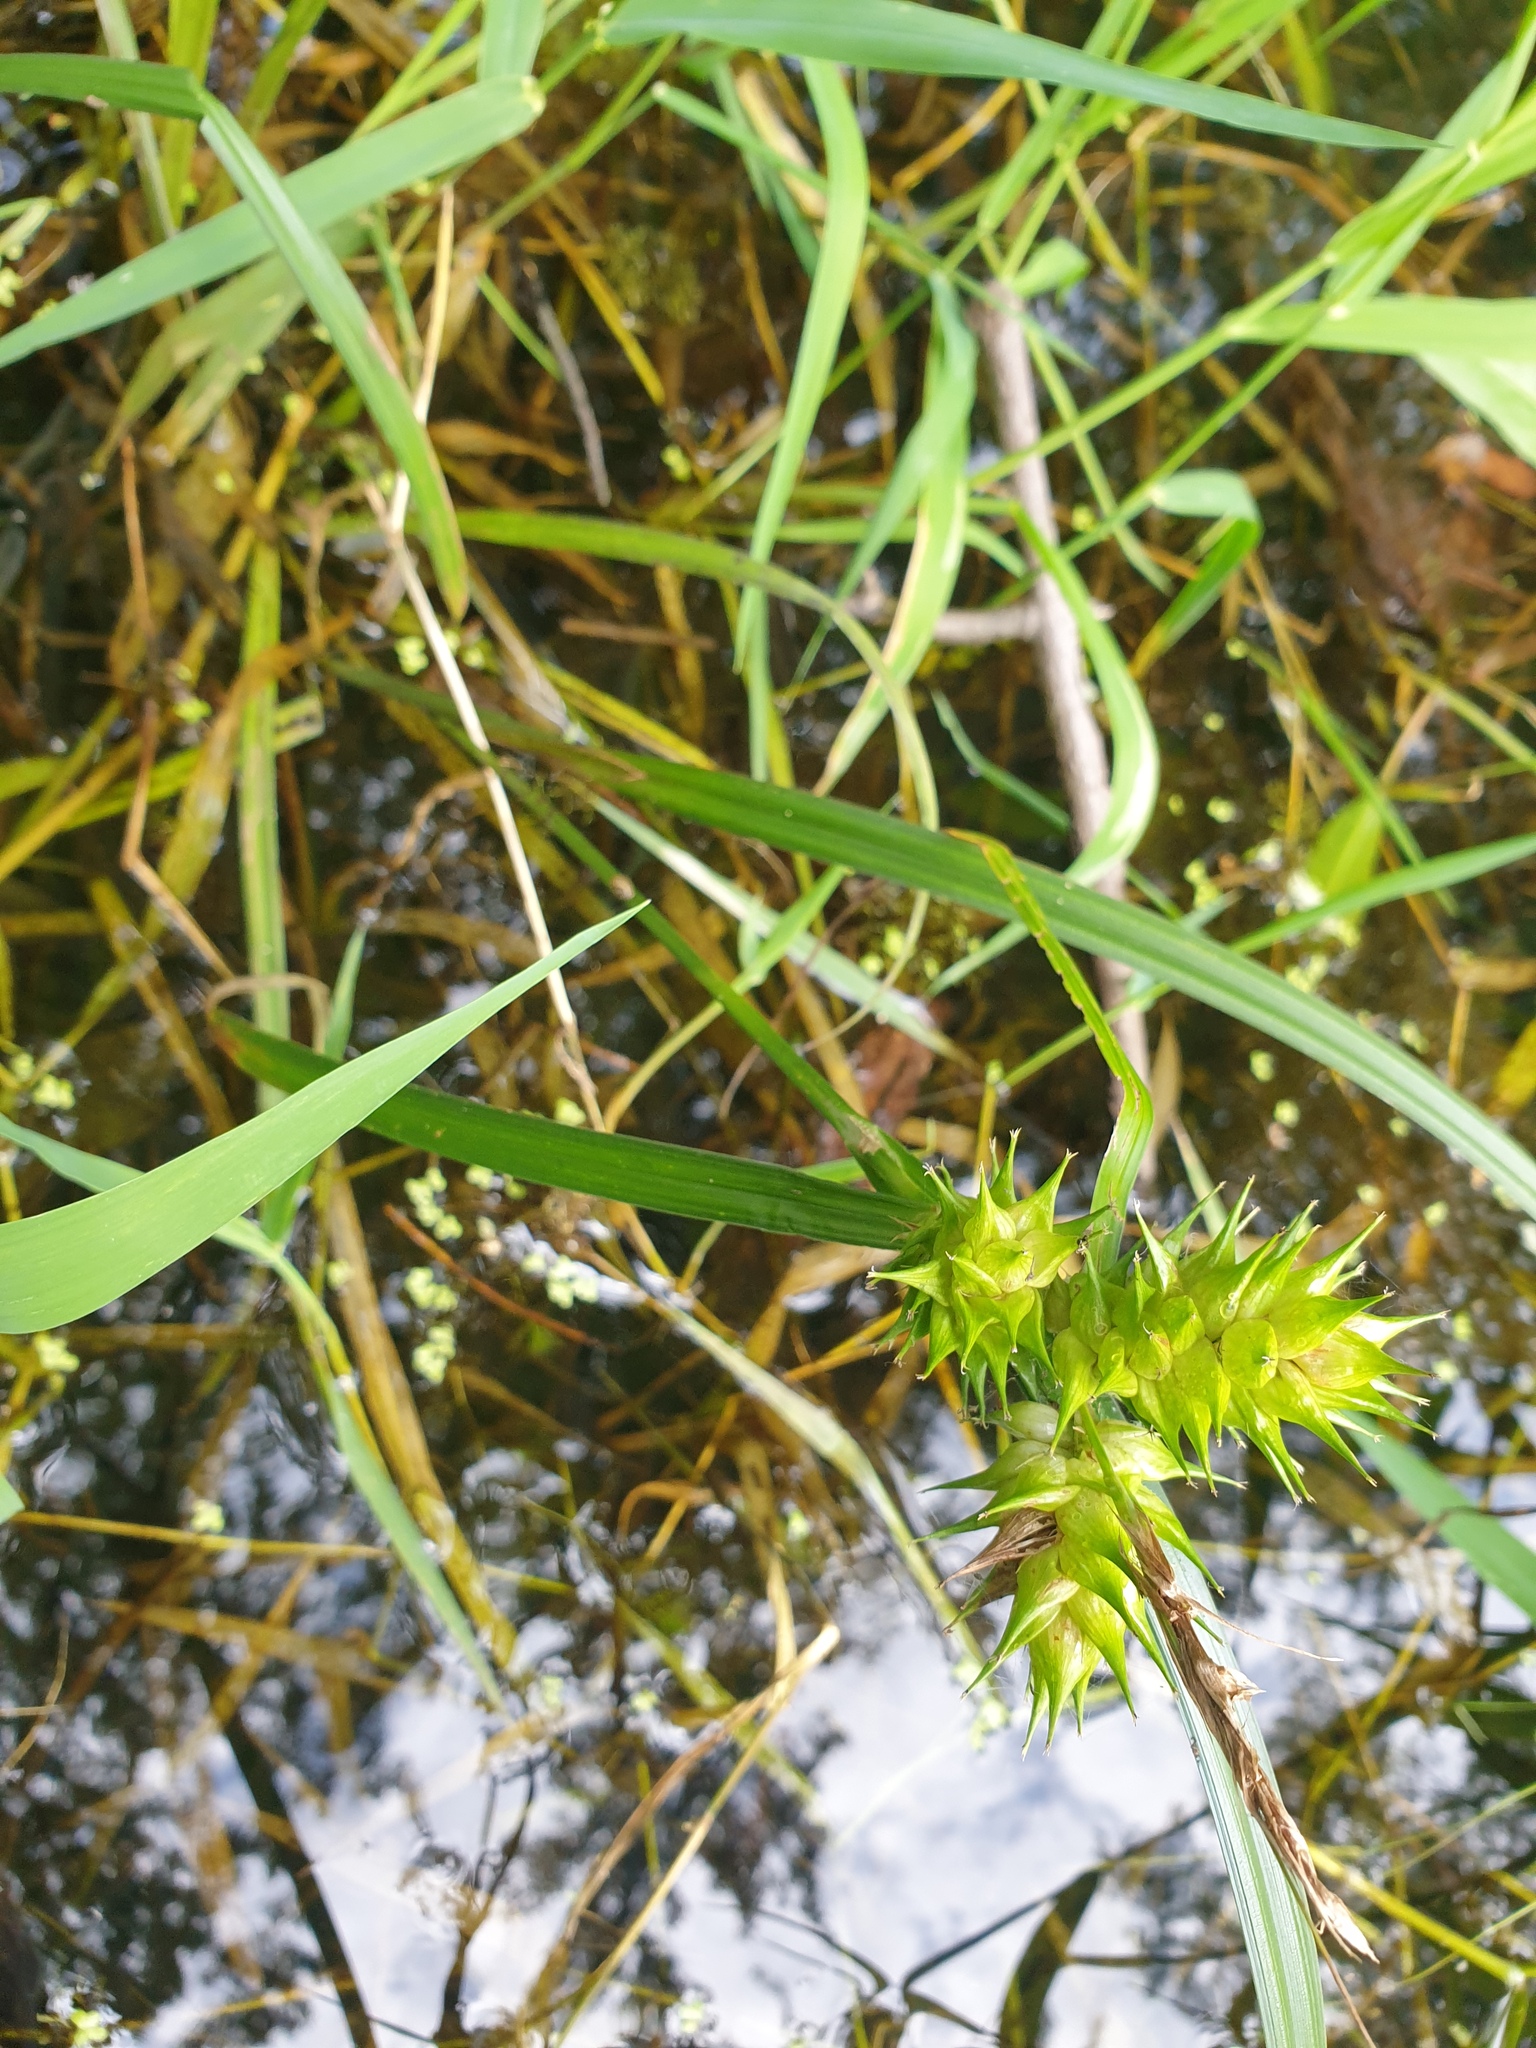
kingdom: Plantae
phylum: Tracheophyta
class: Liliopsida
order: Poales
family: Cyperaceae
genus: Carex
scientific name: Carex lupulina
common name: Hop sedge
